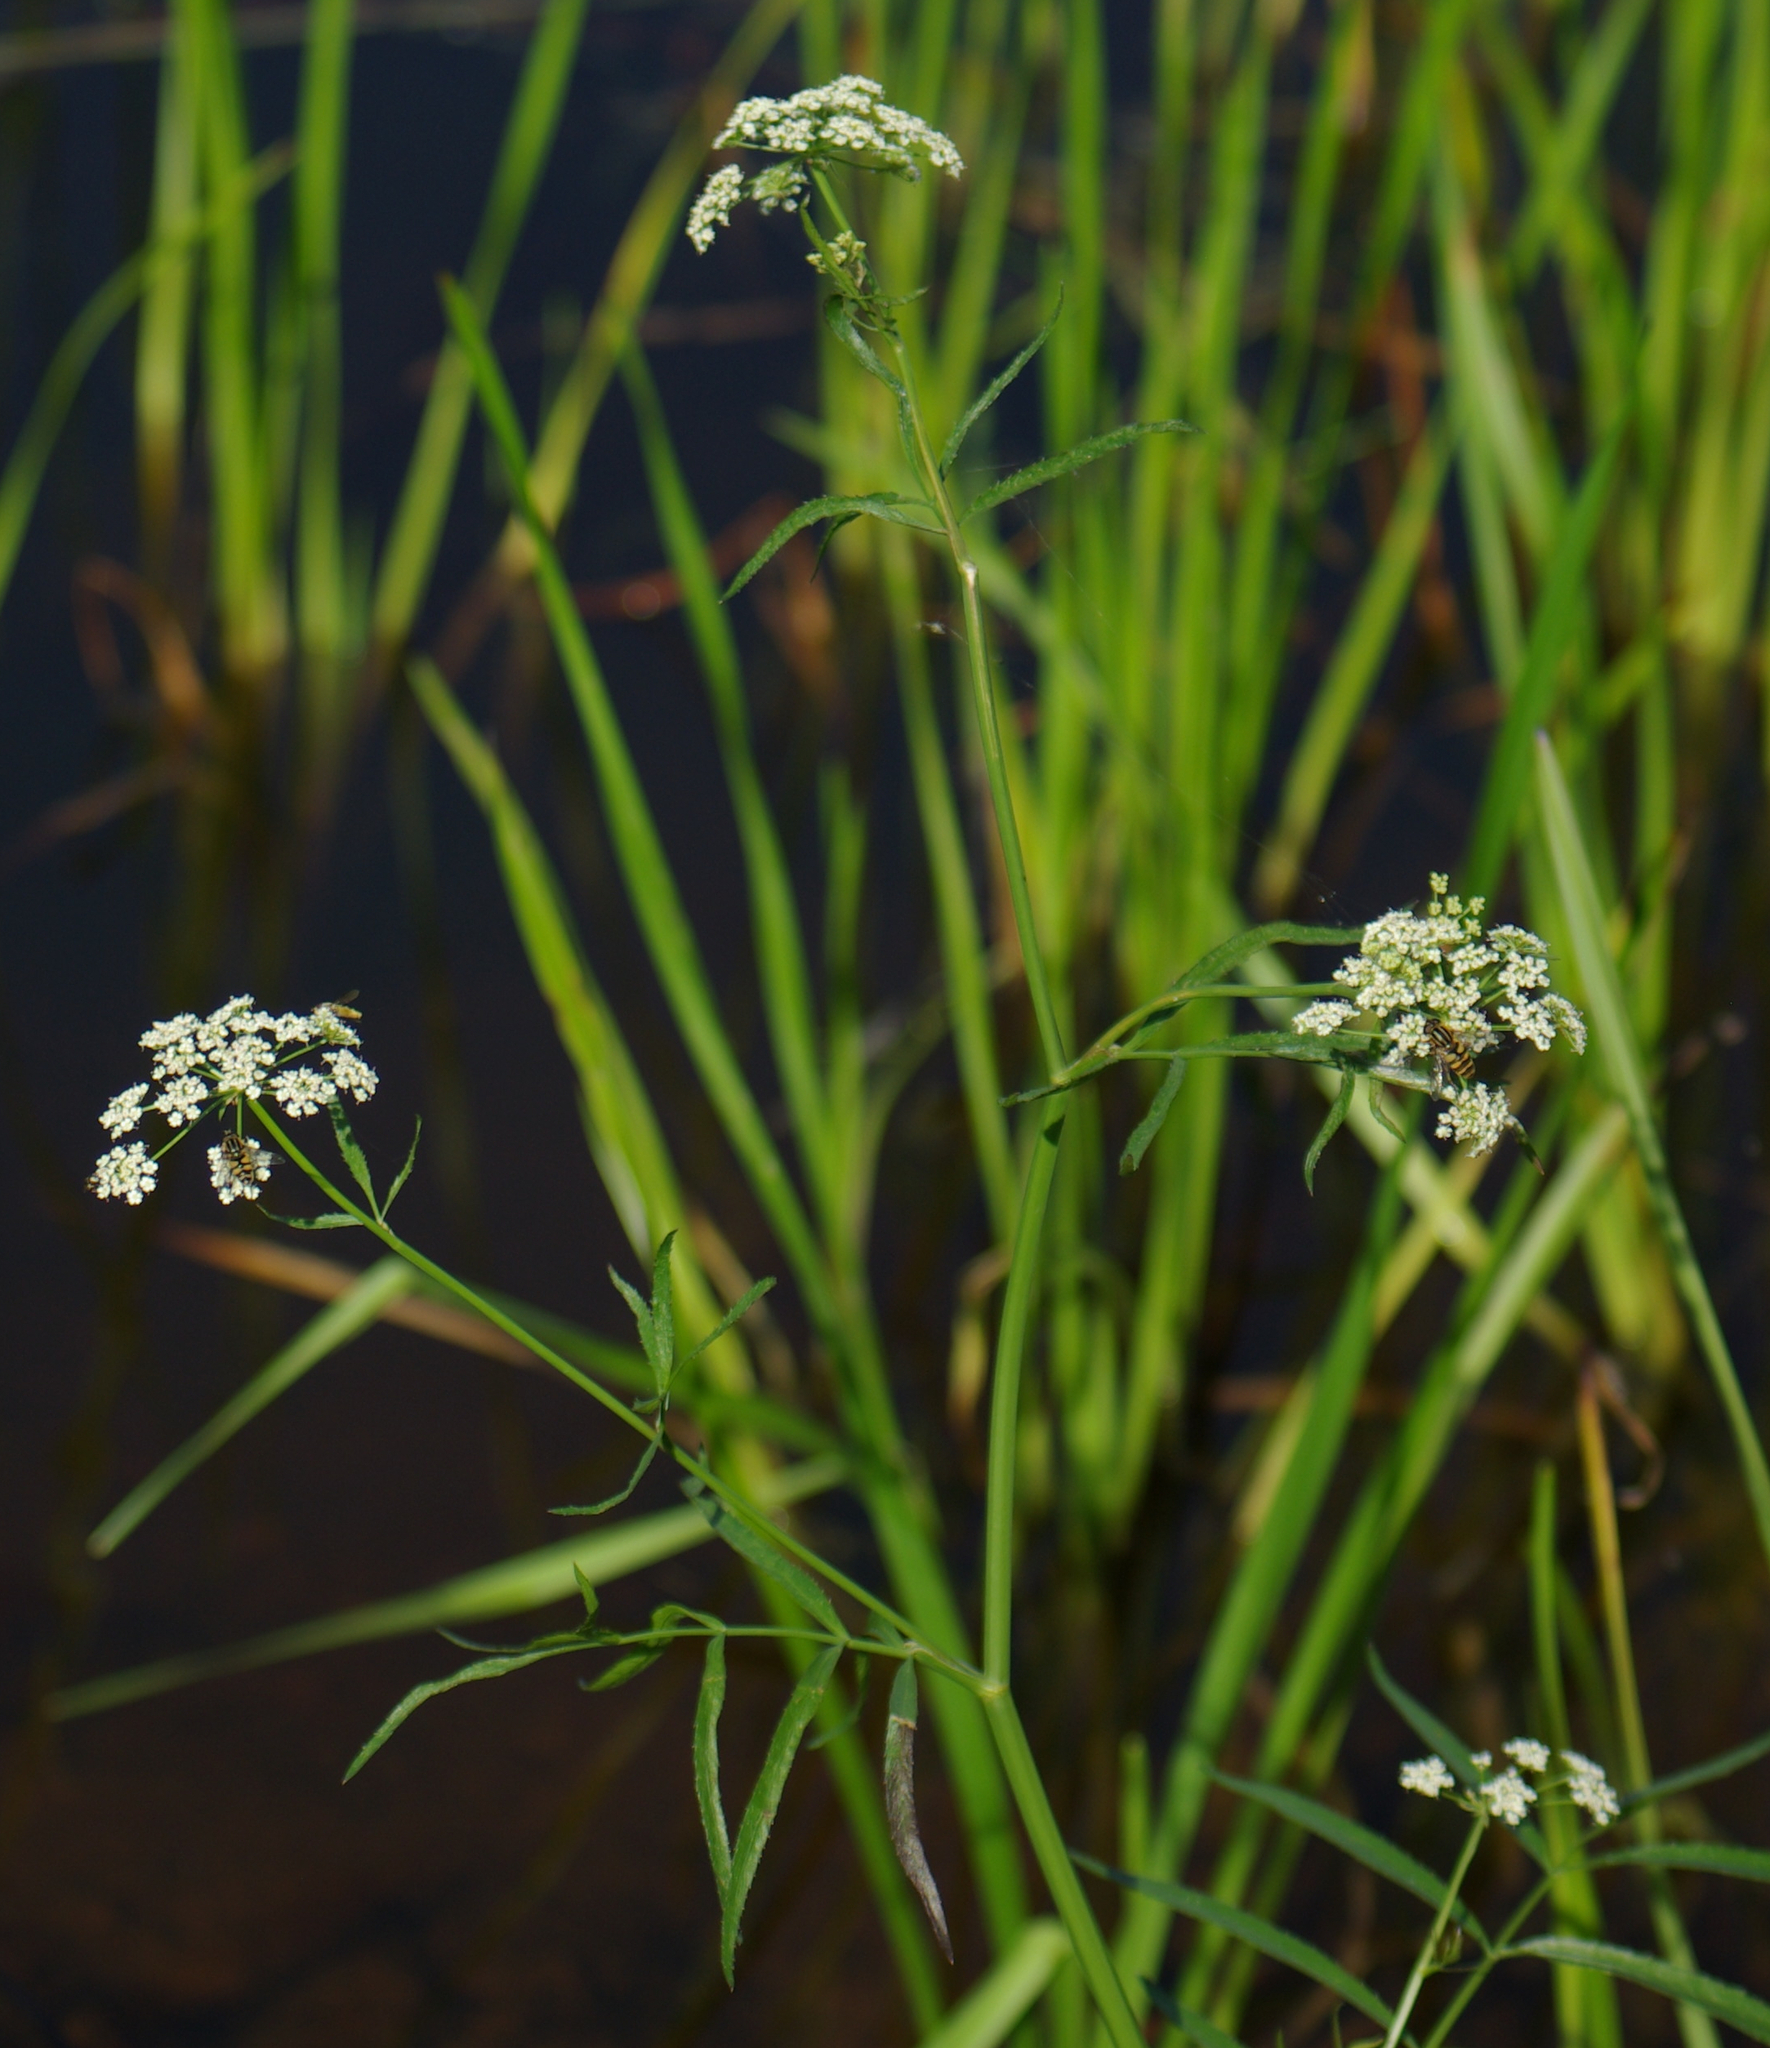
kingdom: Plantae
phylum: Tracheophyta
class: Magnoliopsida
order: Apiales
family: Apiaceae
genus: Cicuta
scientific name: Cicuta maculata
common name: Spotted cowbane
